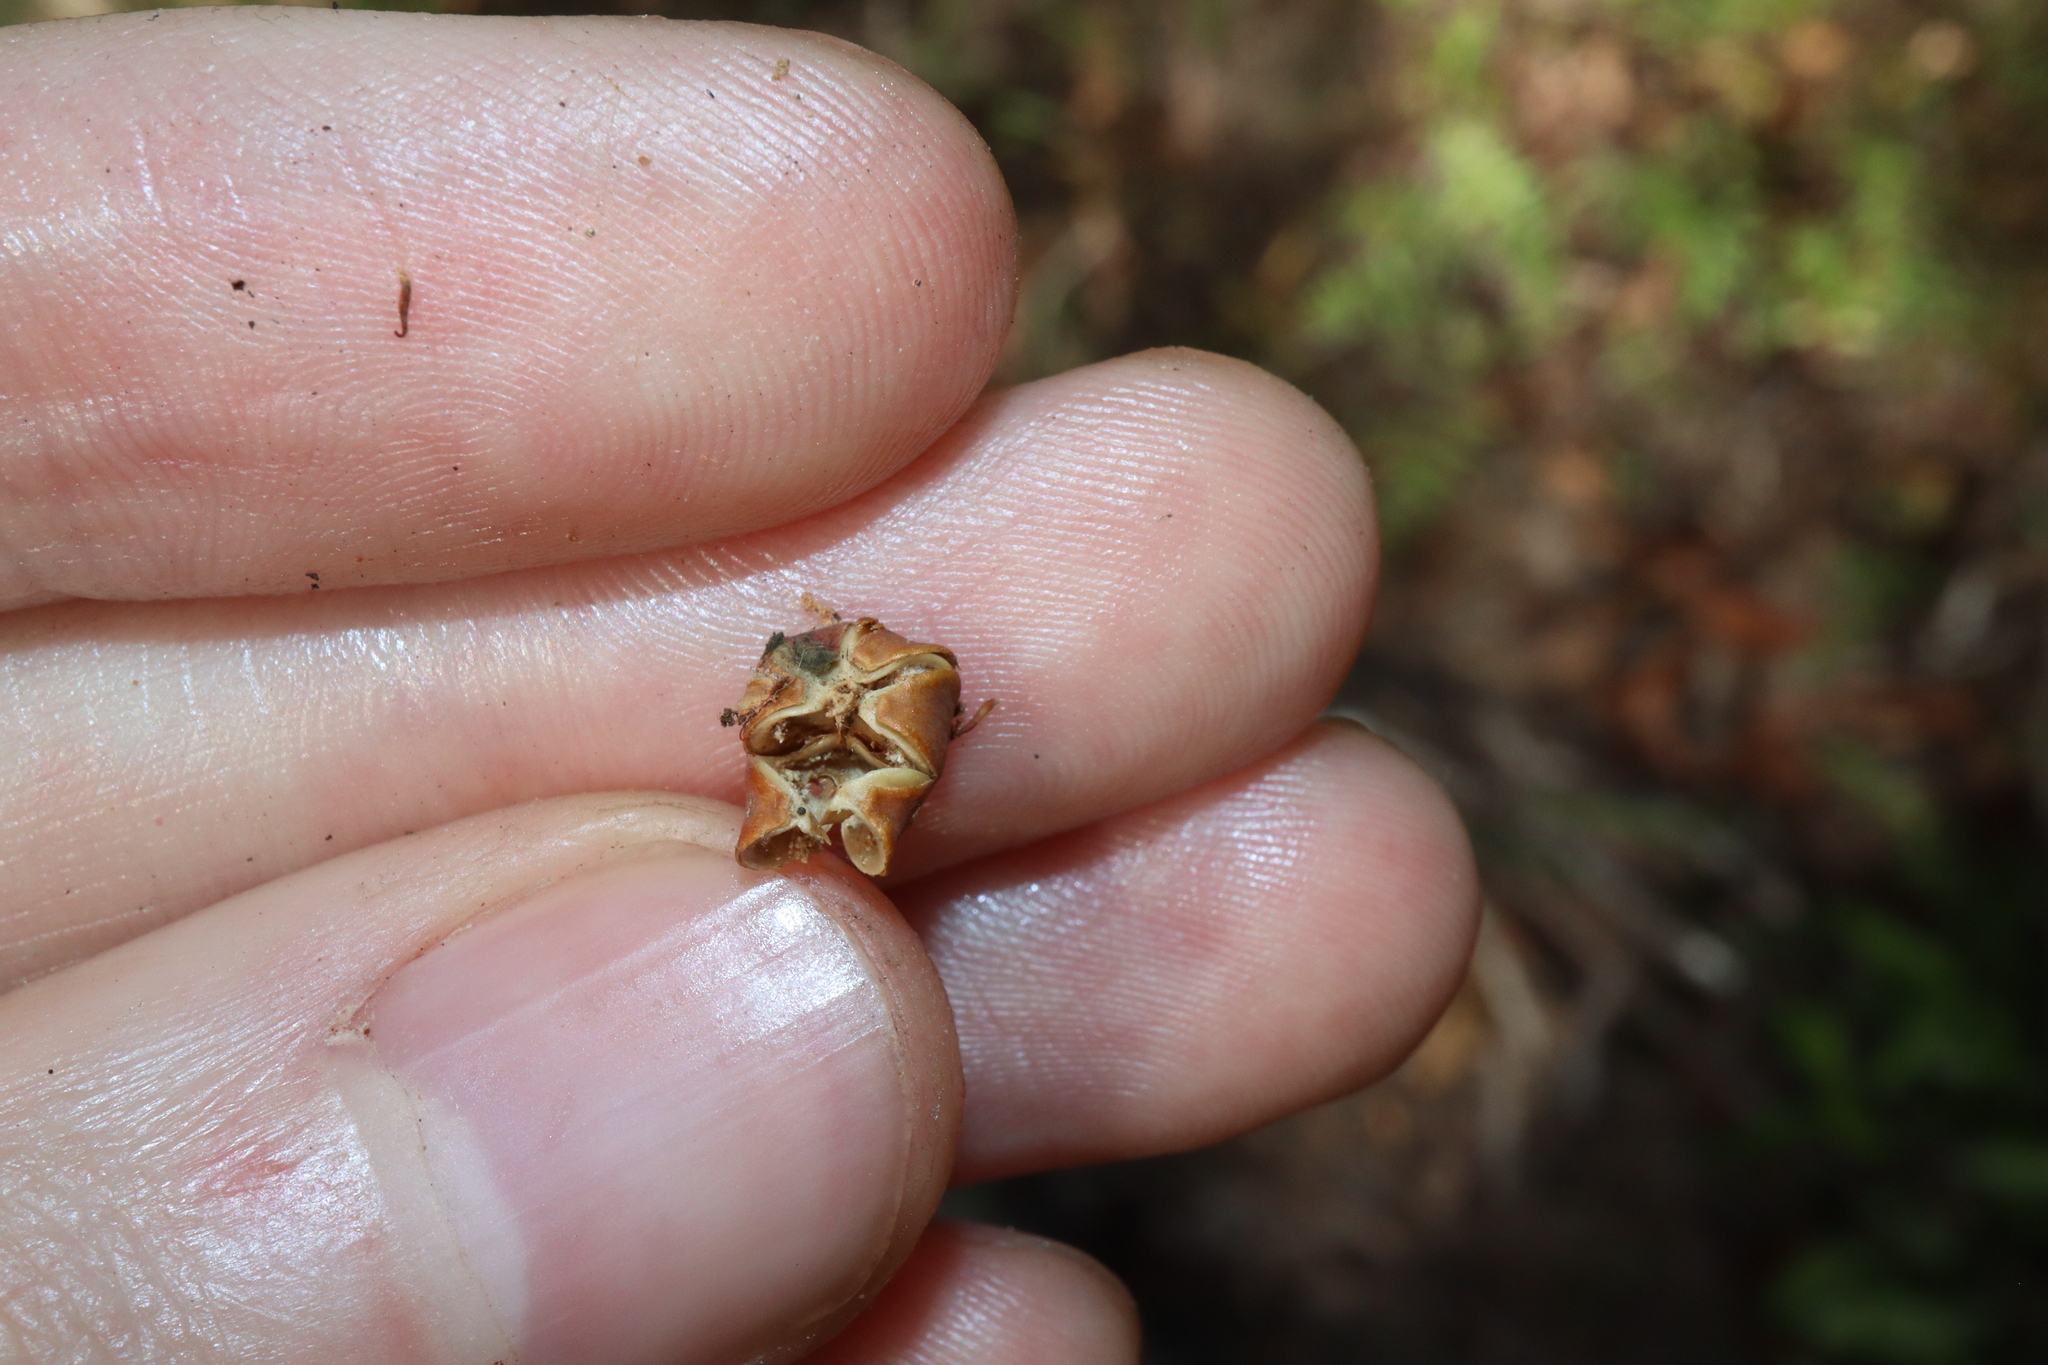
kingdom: Plantae
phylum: Tracheophyta
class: Magnoliopsida
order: Malpighiales
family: Phyllanthaceae
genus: Phyllanthus
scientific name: Phyllanthus dallachyanus
